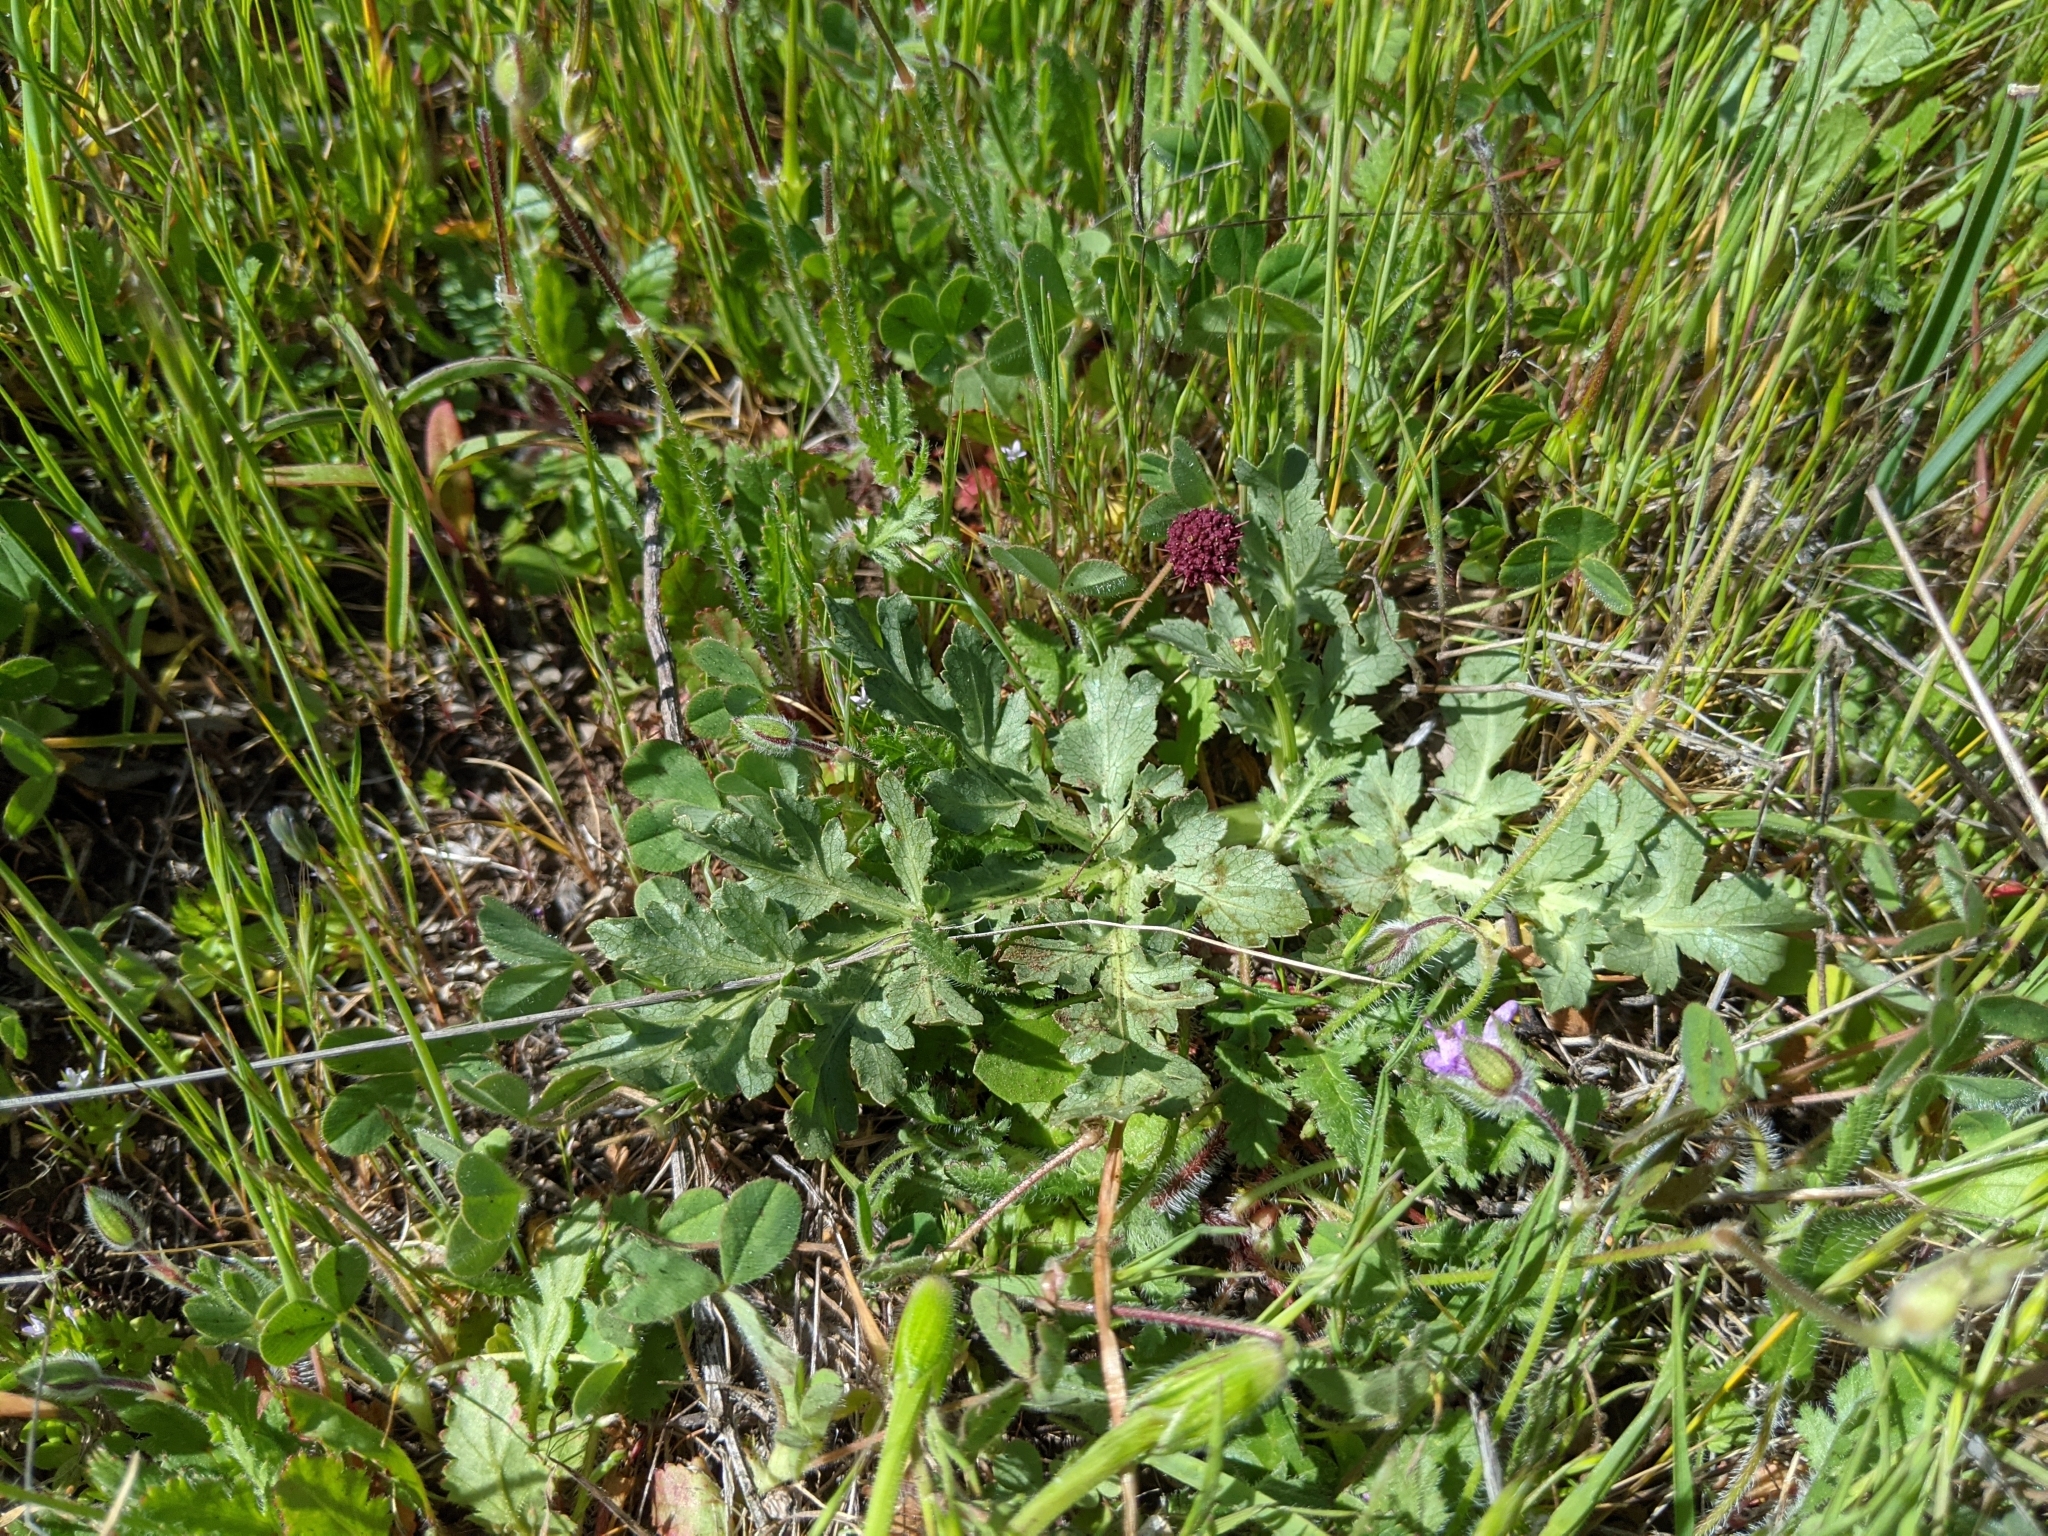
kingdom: Plantae
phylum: Tracheophyta
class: Magnoliopsida
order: Apiales
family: Apiaceae
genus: Sanicula
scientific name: Sanicula bipinnatifida
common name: Shoe-buttons
